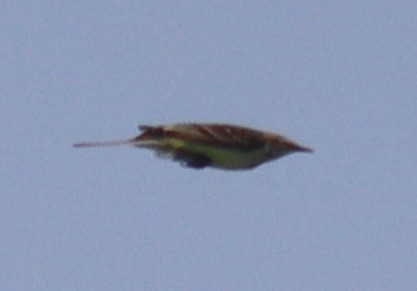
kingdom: Animalia
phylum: Chordata
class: Aves
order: Passeriformes
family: Motacillidae
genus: Motacilla
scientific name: Motacilla flava
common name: Western yellow wagtail
